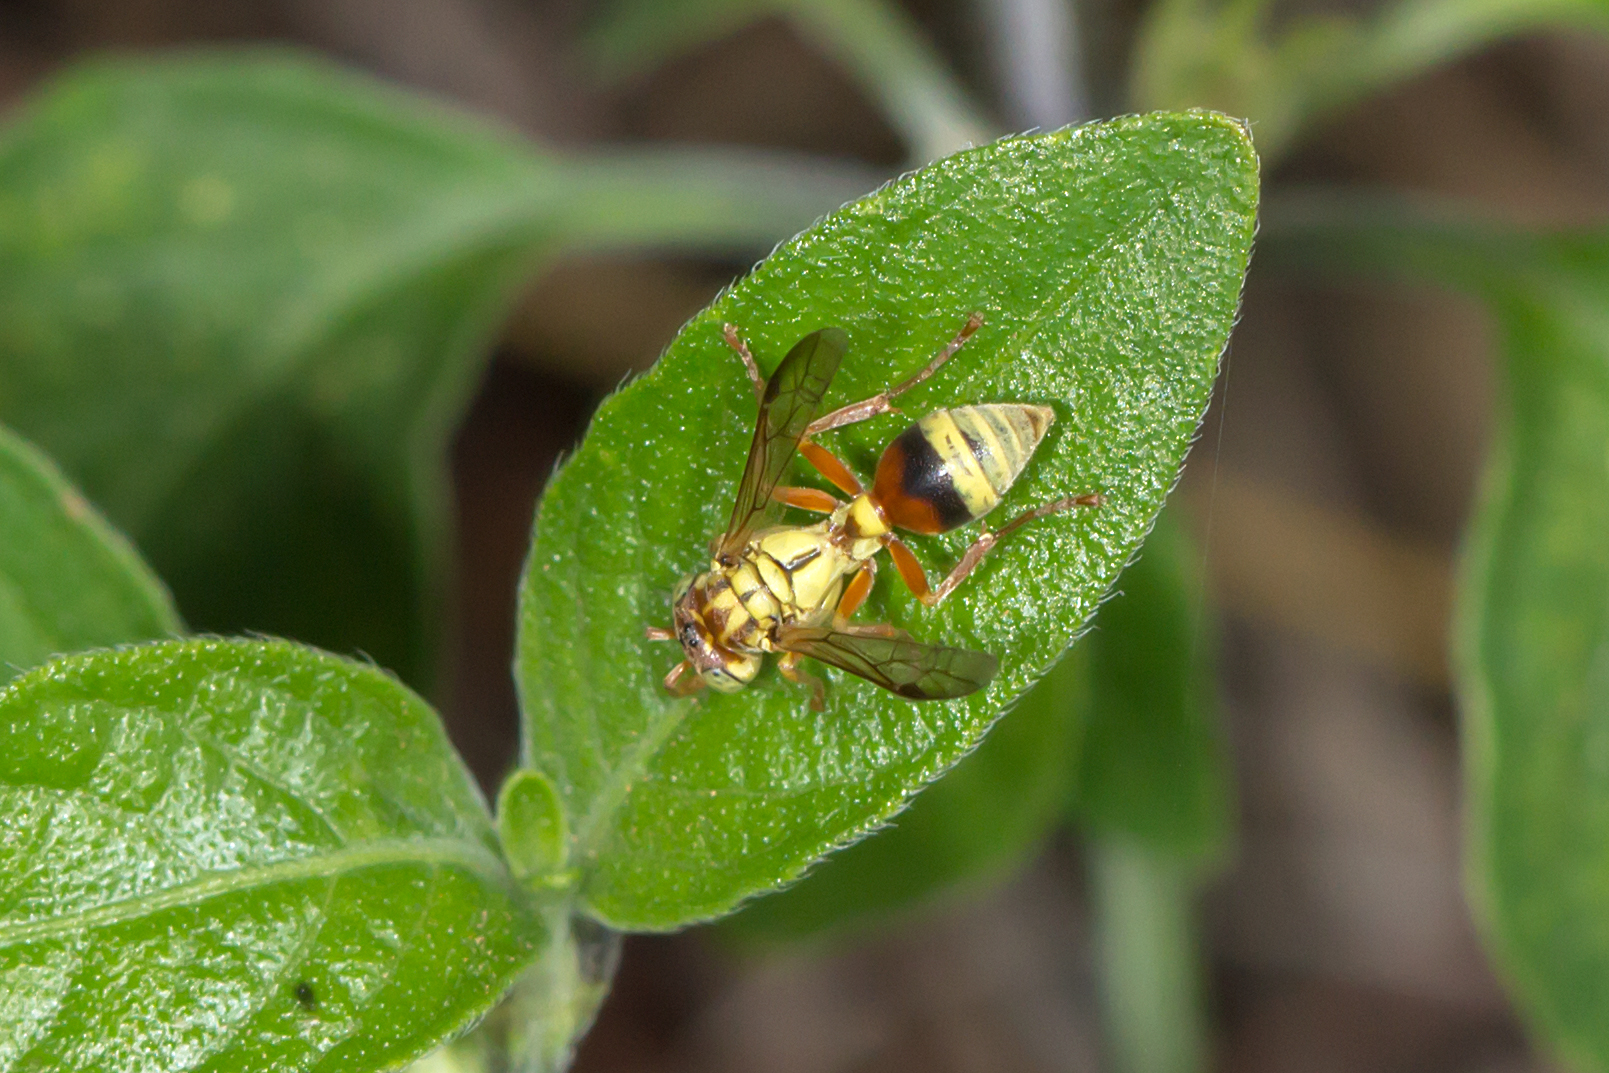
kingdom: Animalia
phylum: Arthropoda
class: Insecta
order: Hymenoptera
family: Vespidae
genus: Ropalidia
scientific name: Ropalidia romandi
